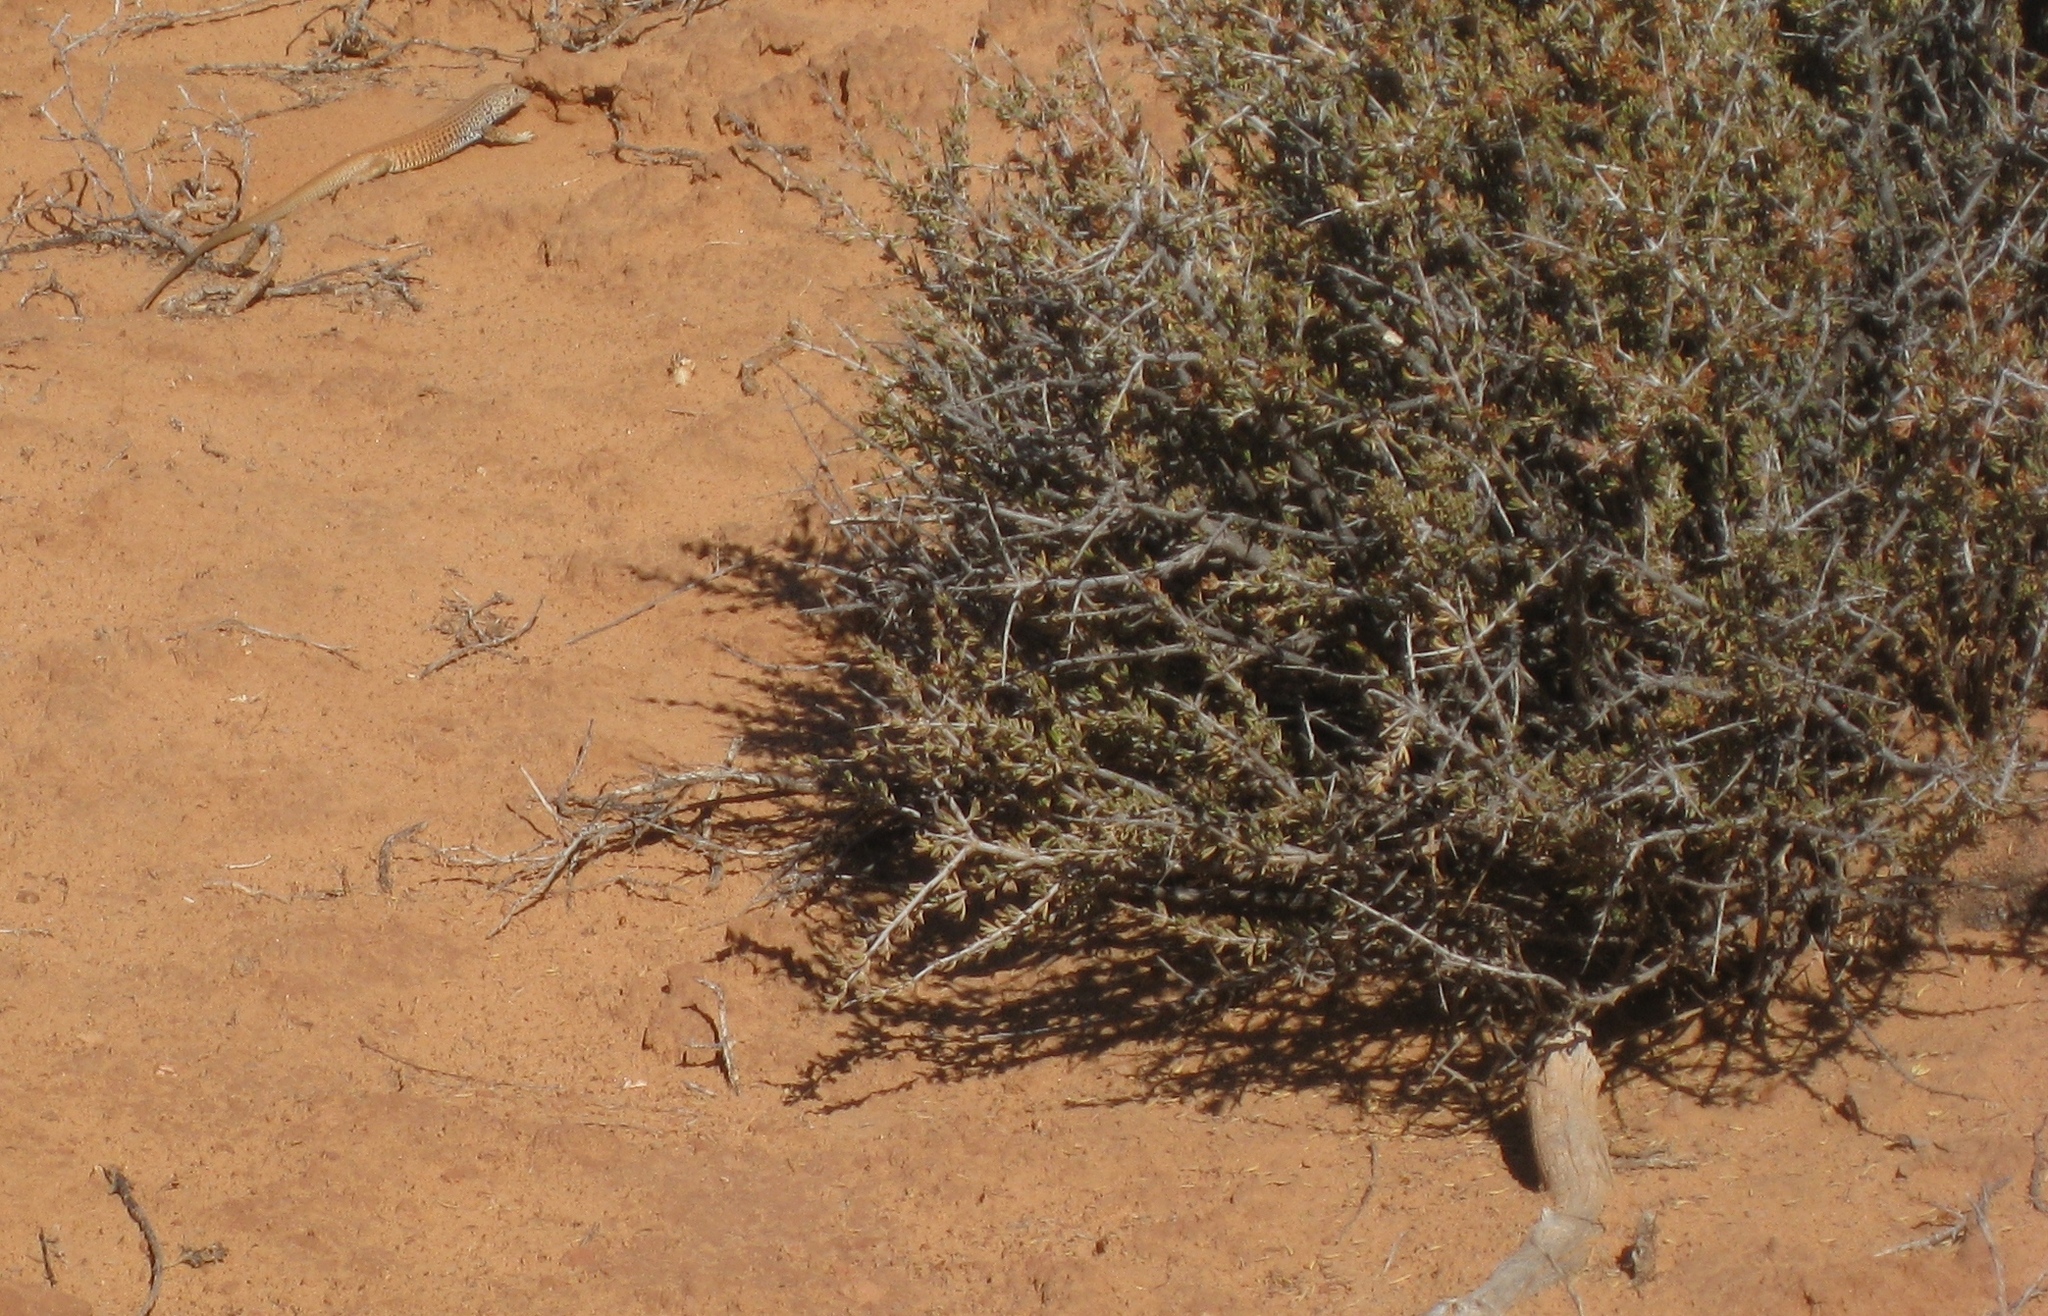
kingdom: Animalia
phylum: Chordata
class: Squamata
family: Teiidae
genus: Aspidoscelis
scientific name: Aspidoscelis tigris
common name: Tiger whiptail
